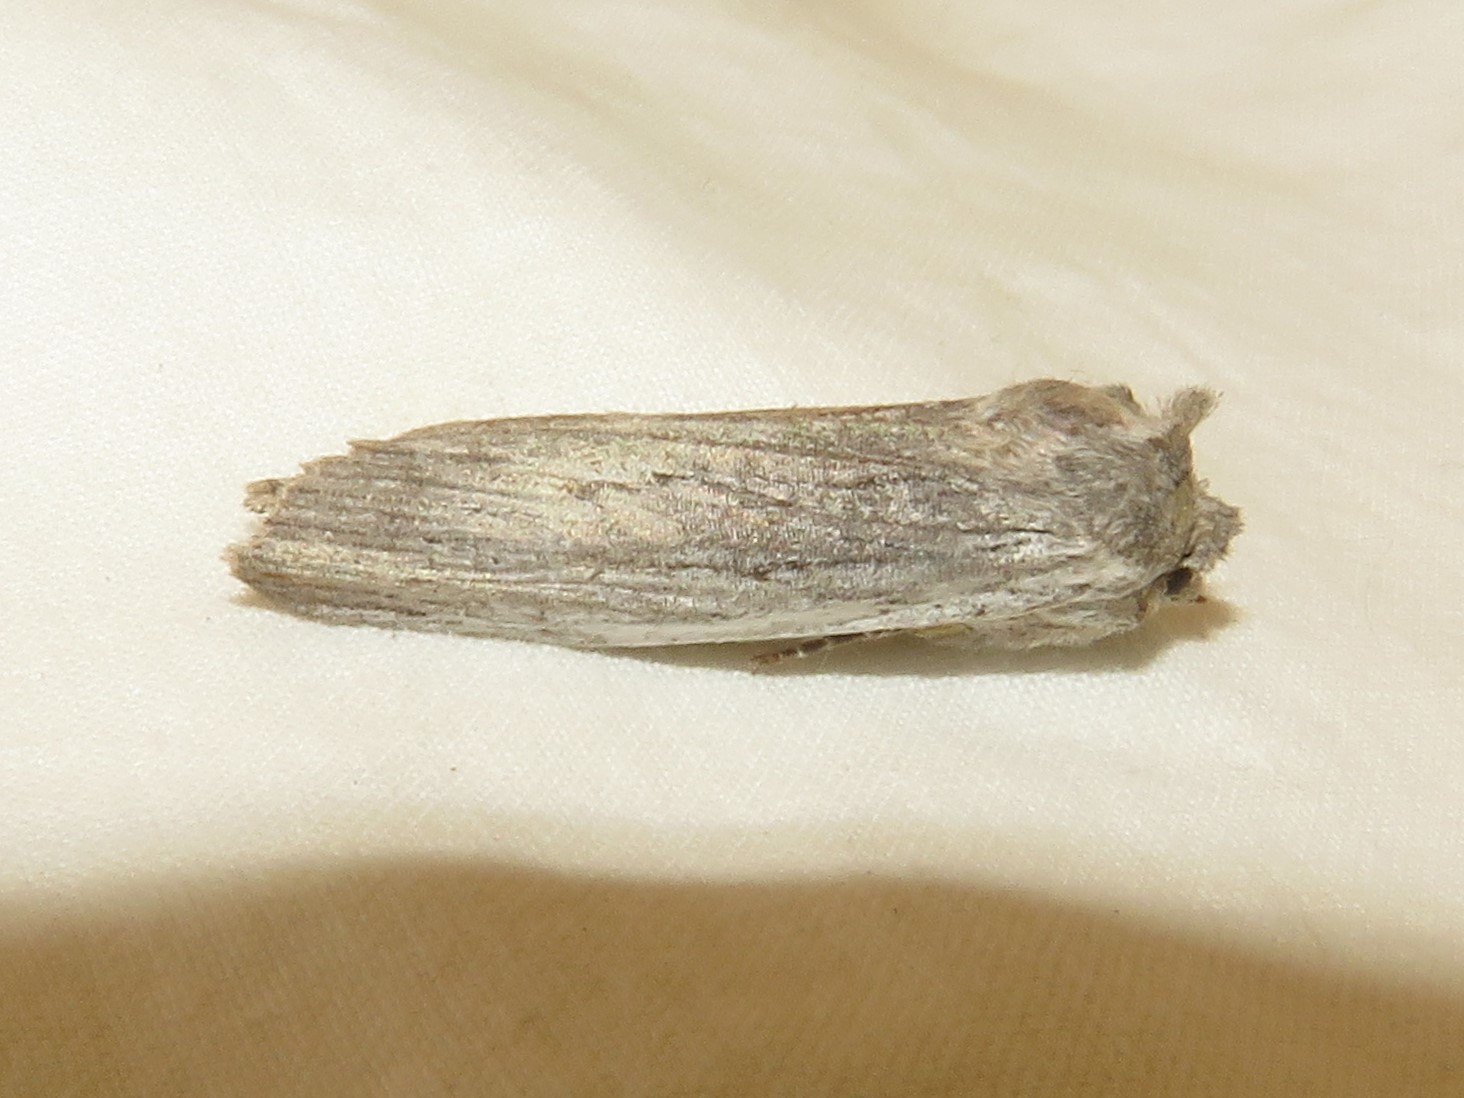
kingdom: Animalia
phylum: Arthropoda
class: Insecta
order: Lepidoptera
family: Noctuidae
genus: Lithophane
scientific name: Lithophane fagina
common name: Hoary pinion moth
